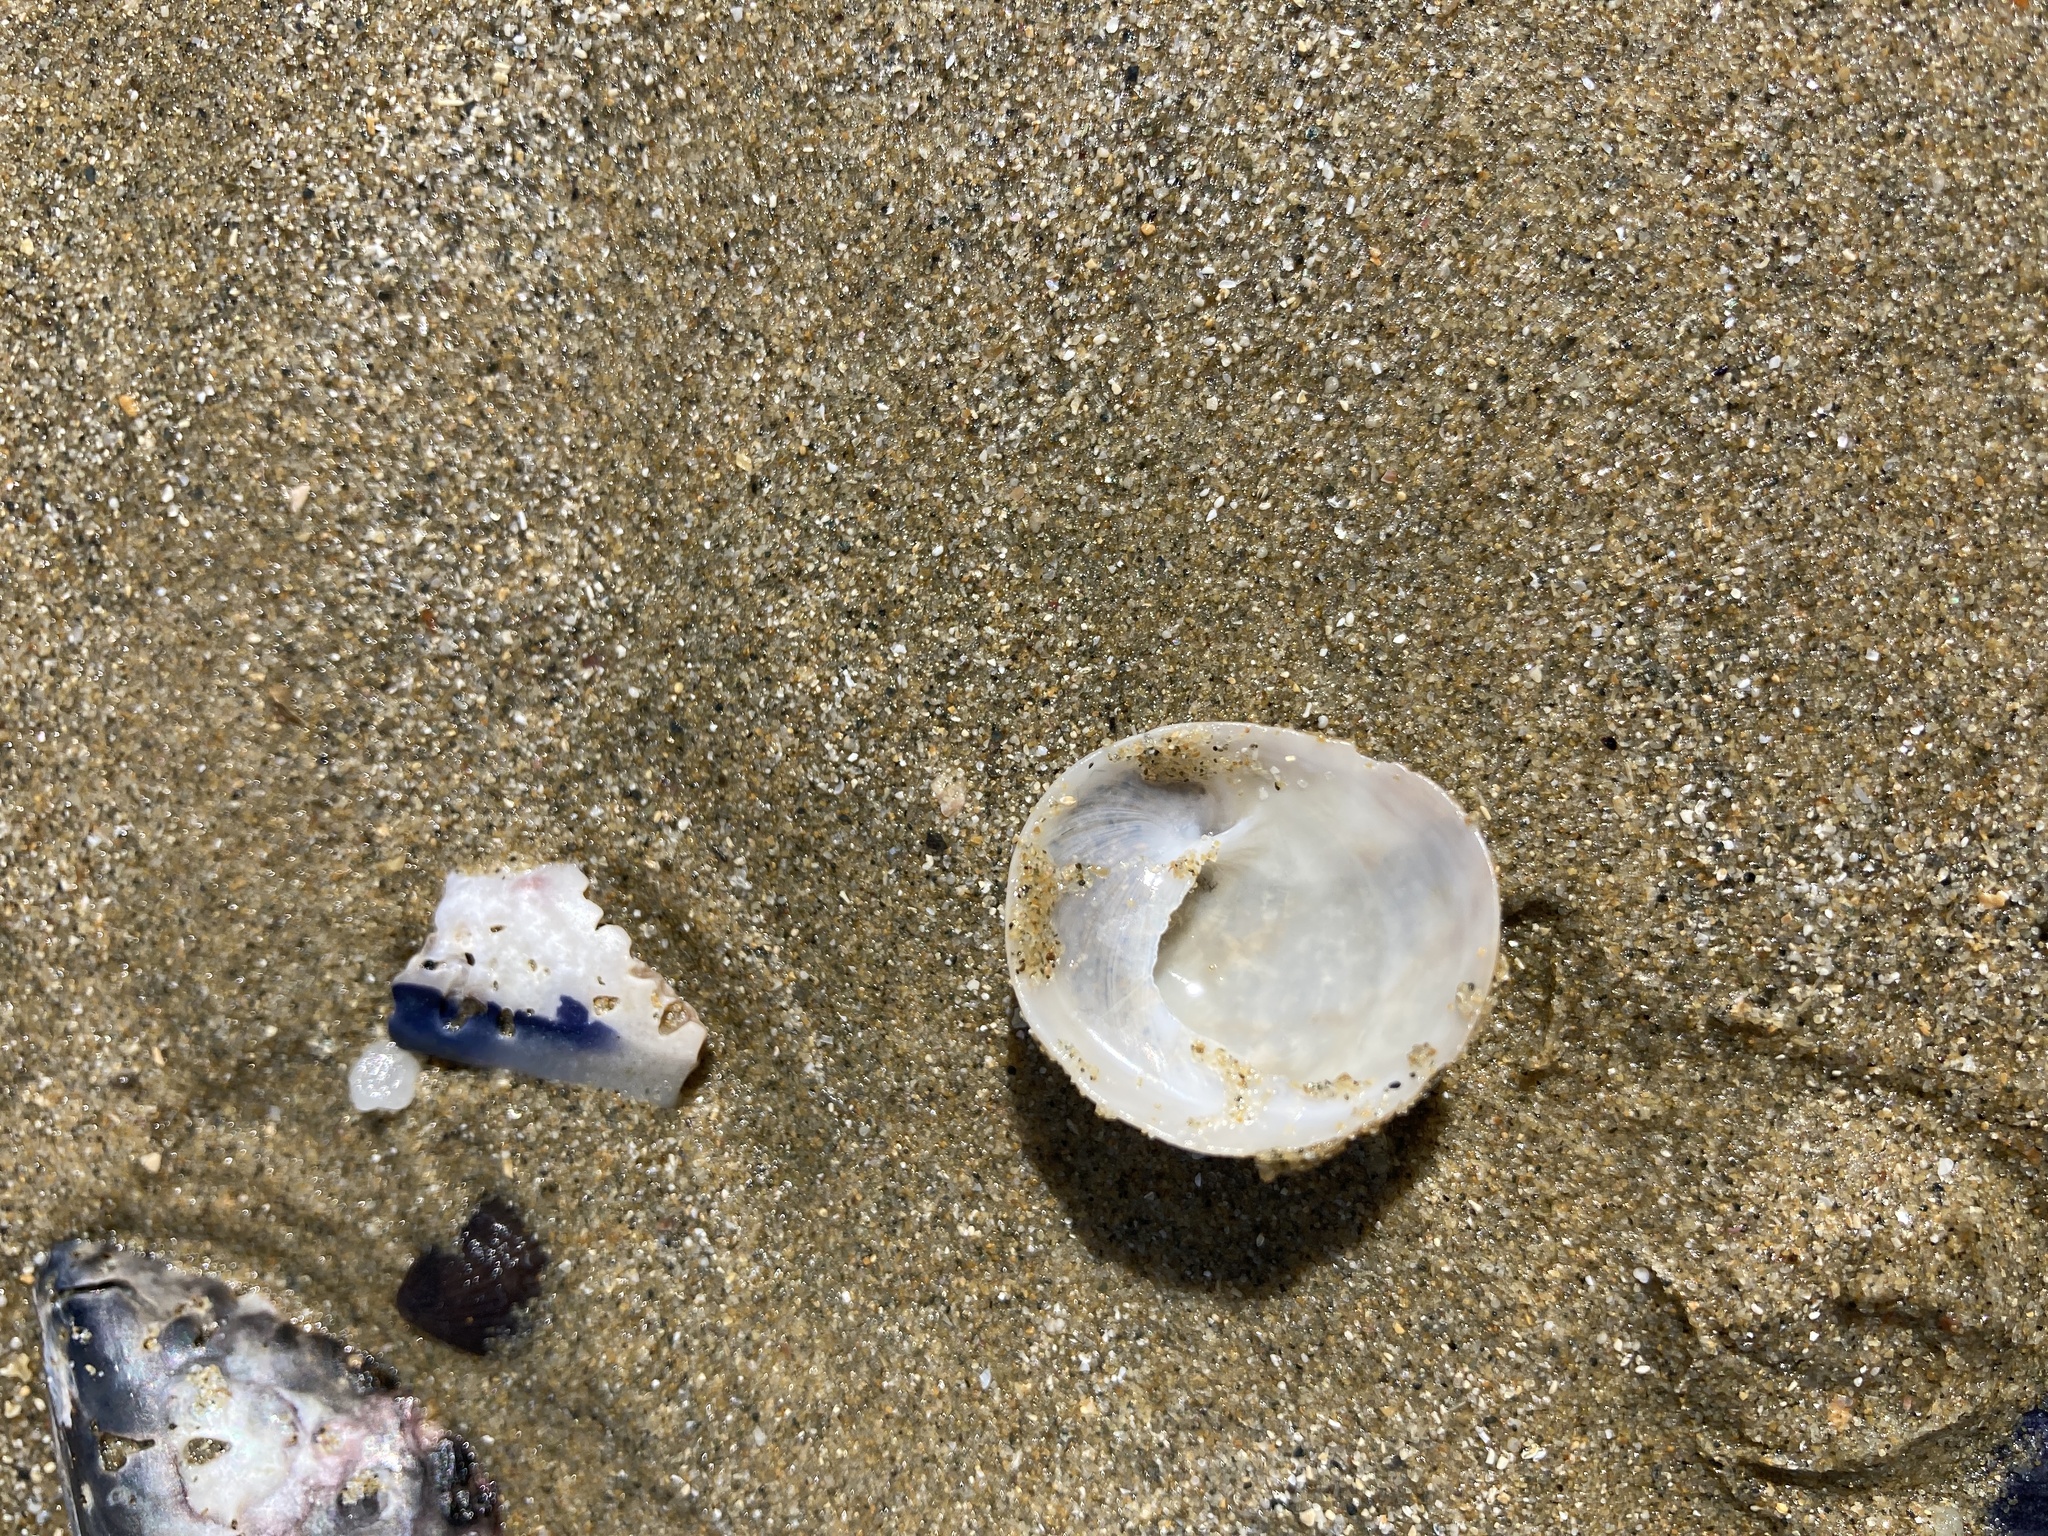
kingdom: Animalia
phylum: Mollusca
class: Gastropoda
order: Littorinimorpha
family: Calyptraeidae
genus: Sigapatella
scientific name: Sigapatella novaezelandiae
